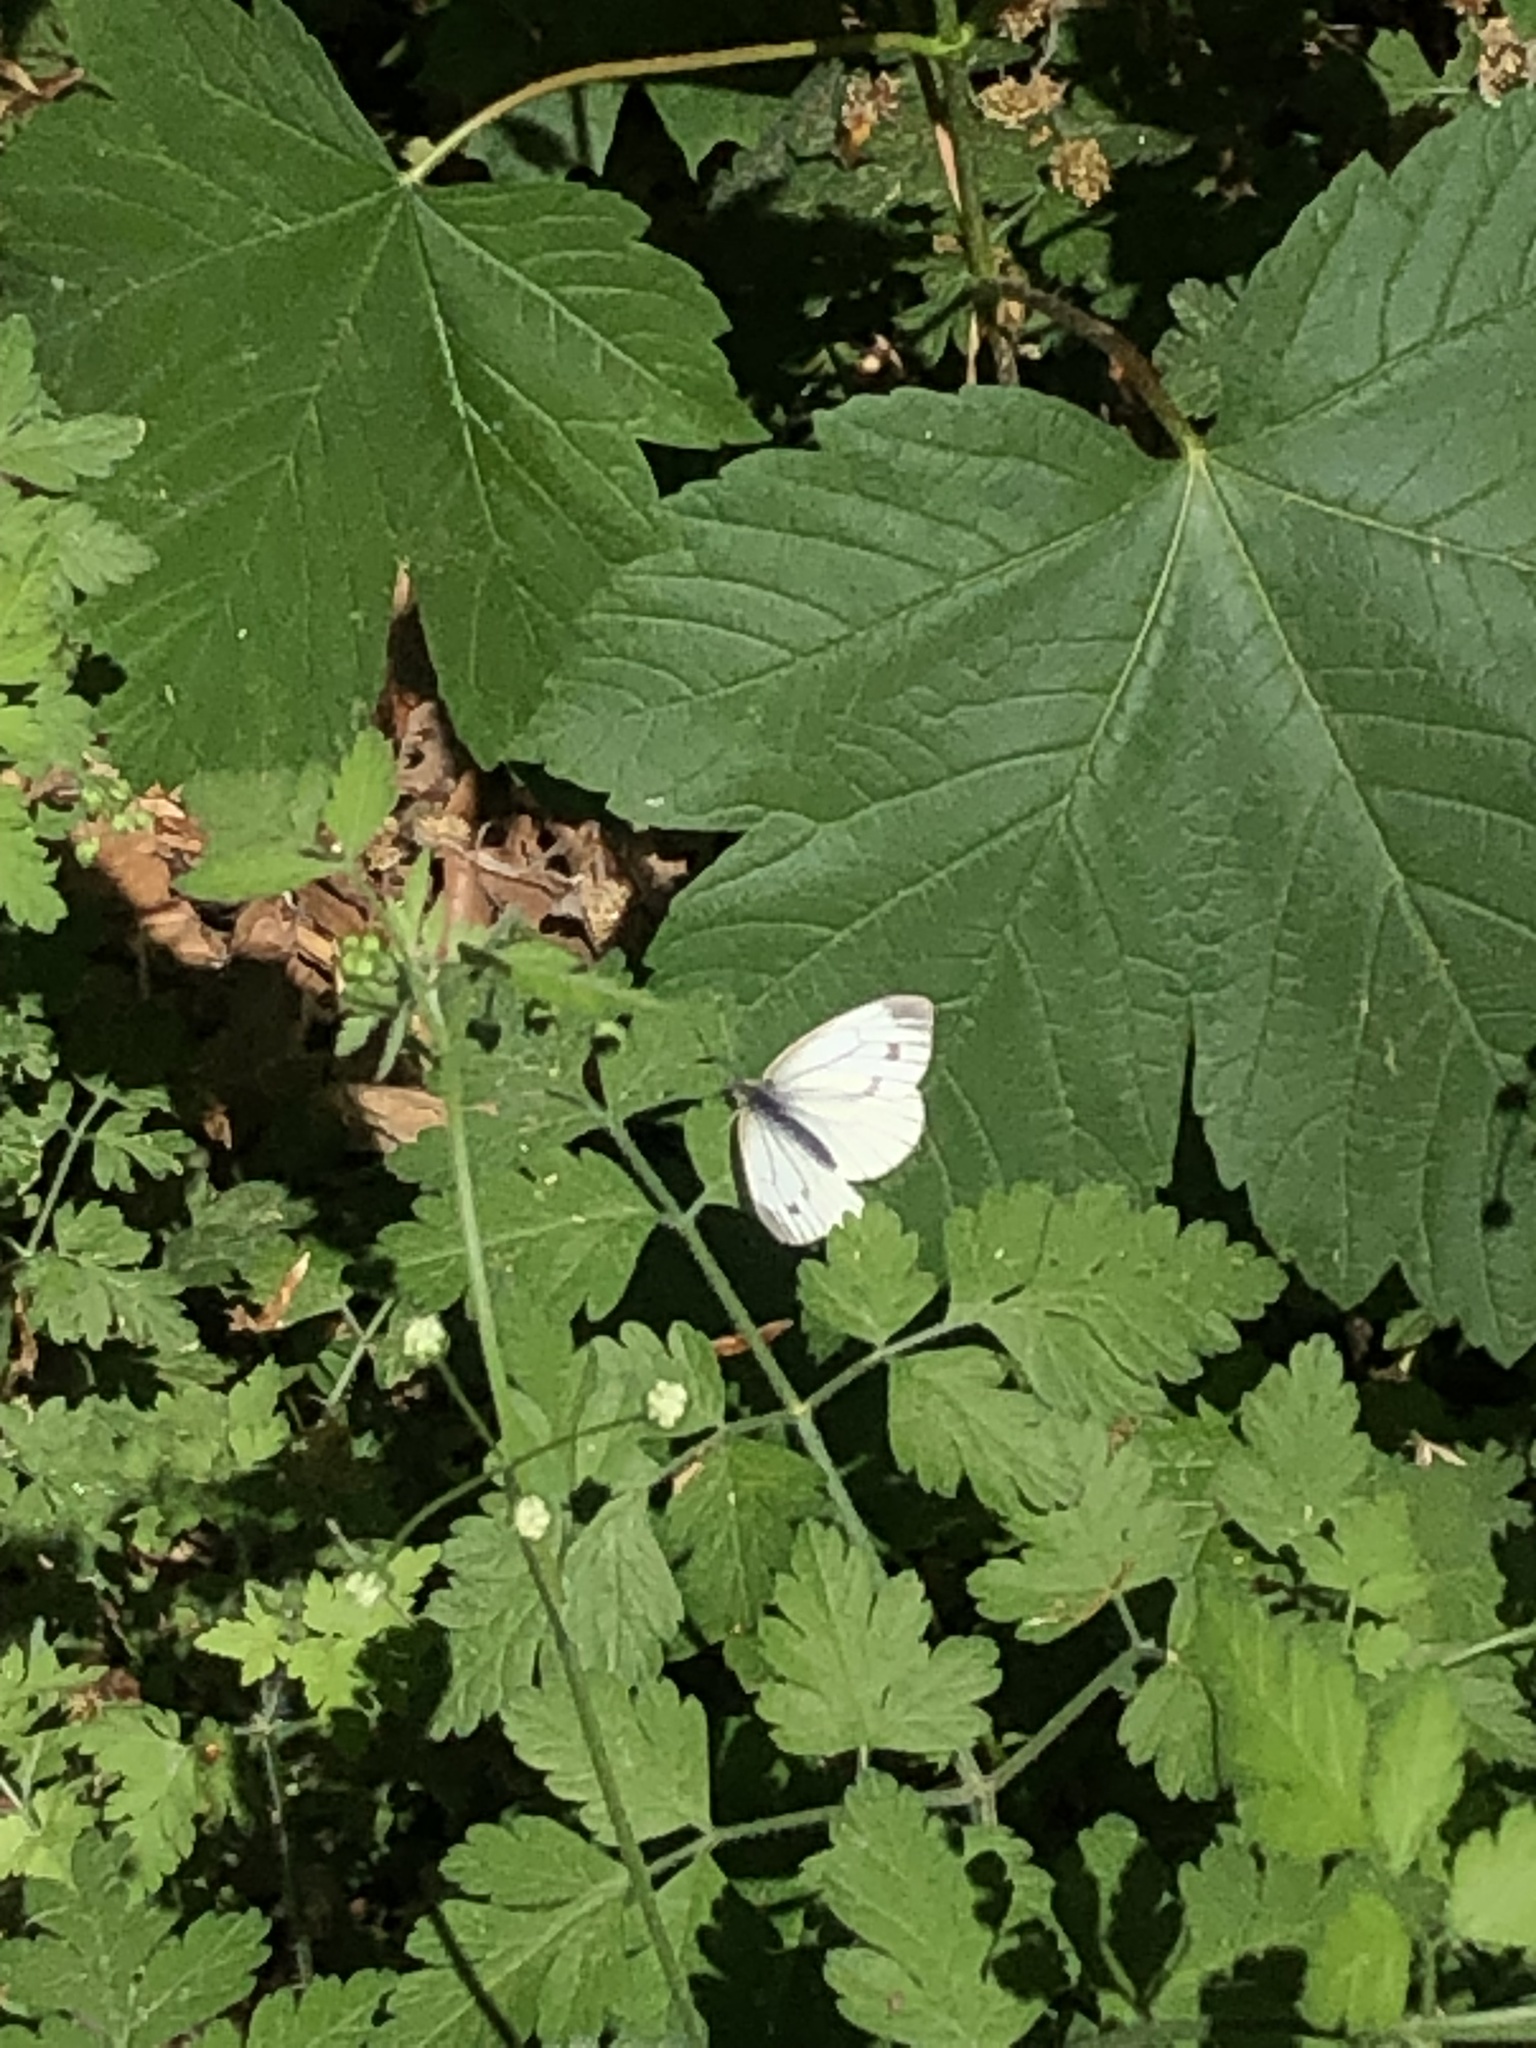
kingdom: Animalia
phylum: Arthropoda
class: Insecta
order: Lepidoptera
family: Pieridae
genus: Pieris
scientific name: Pieris napi
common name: Green-veined white
